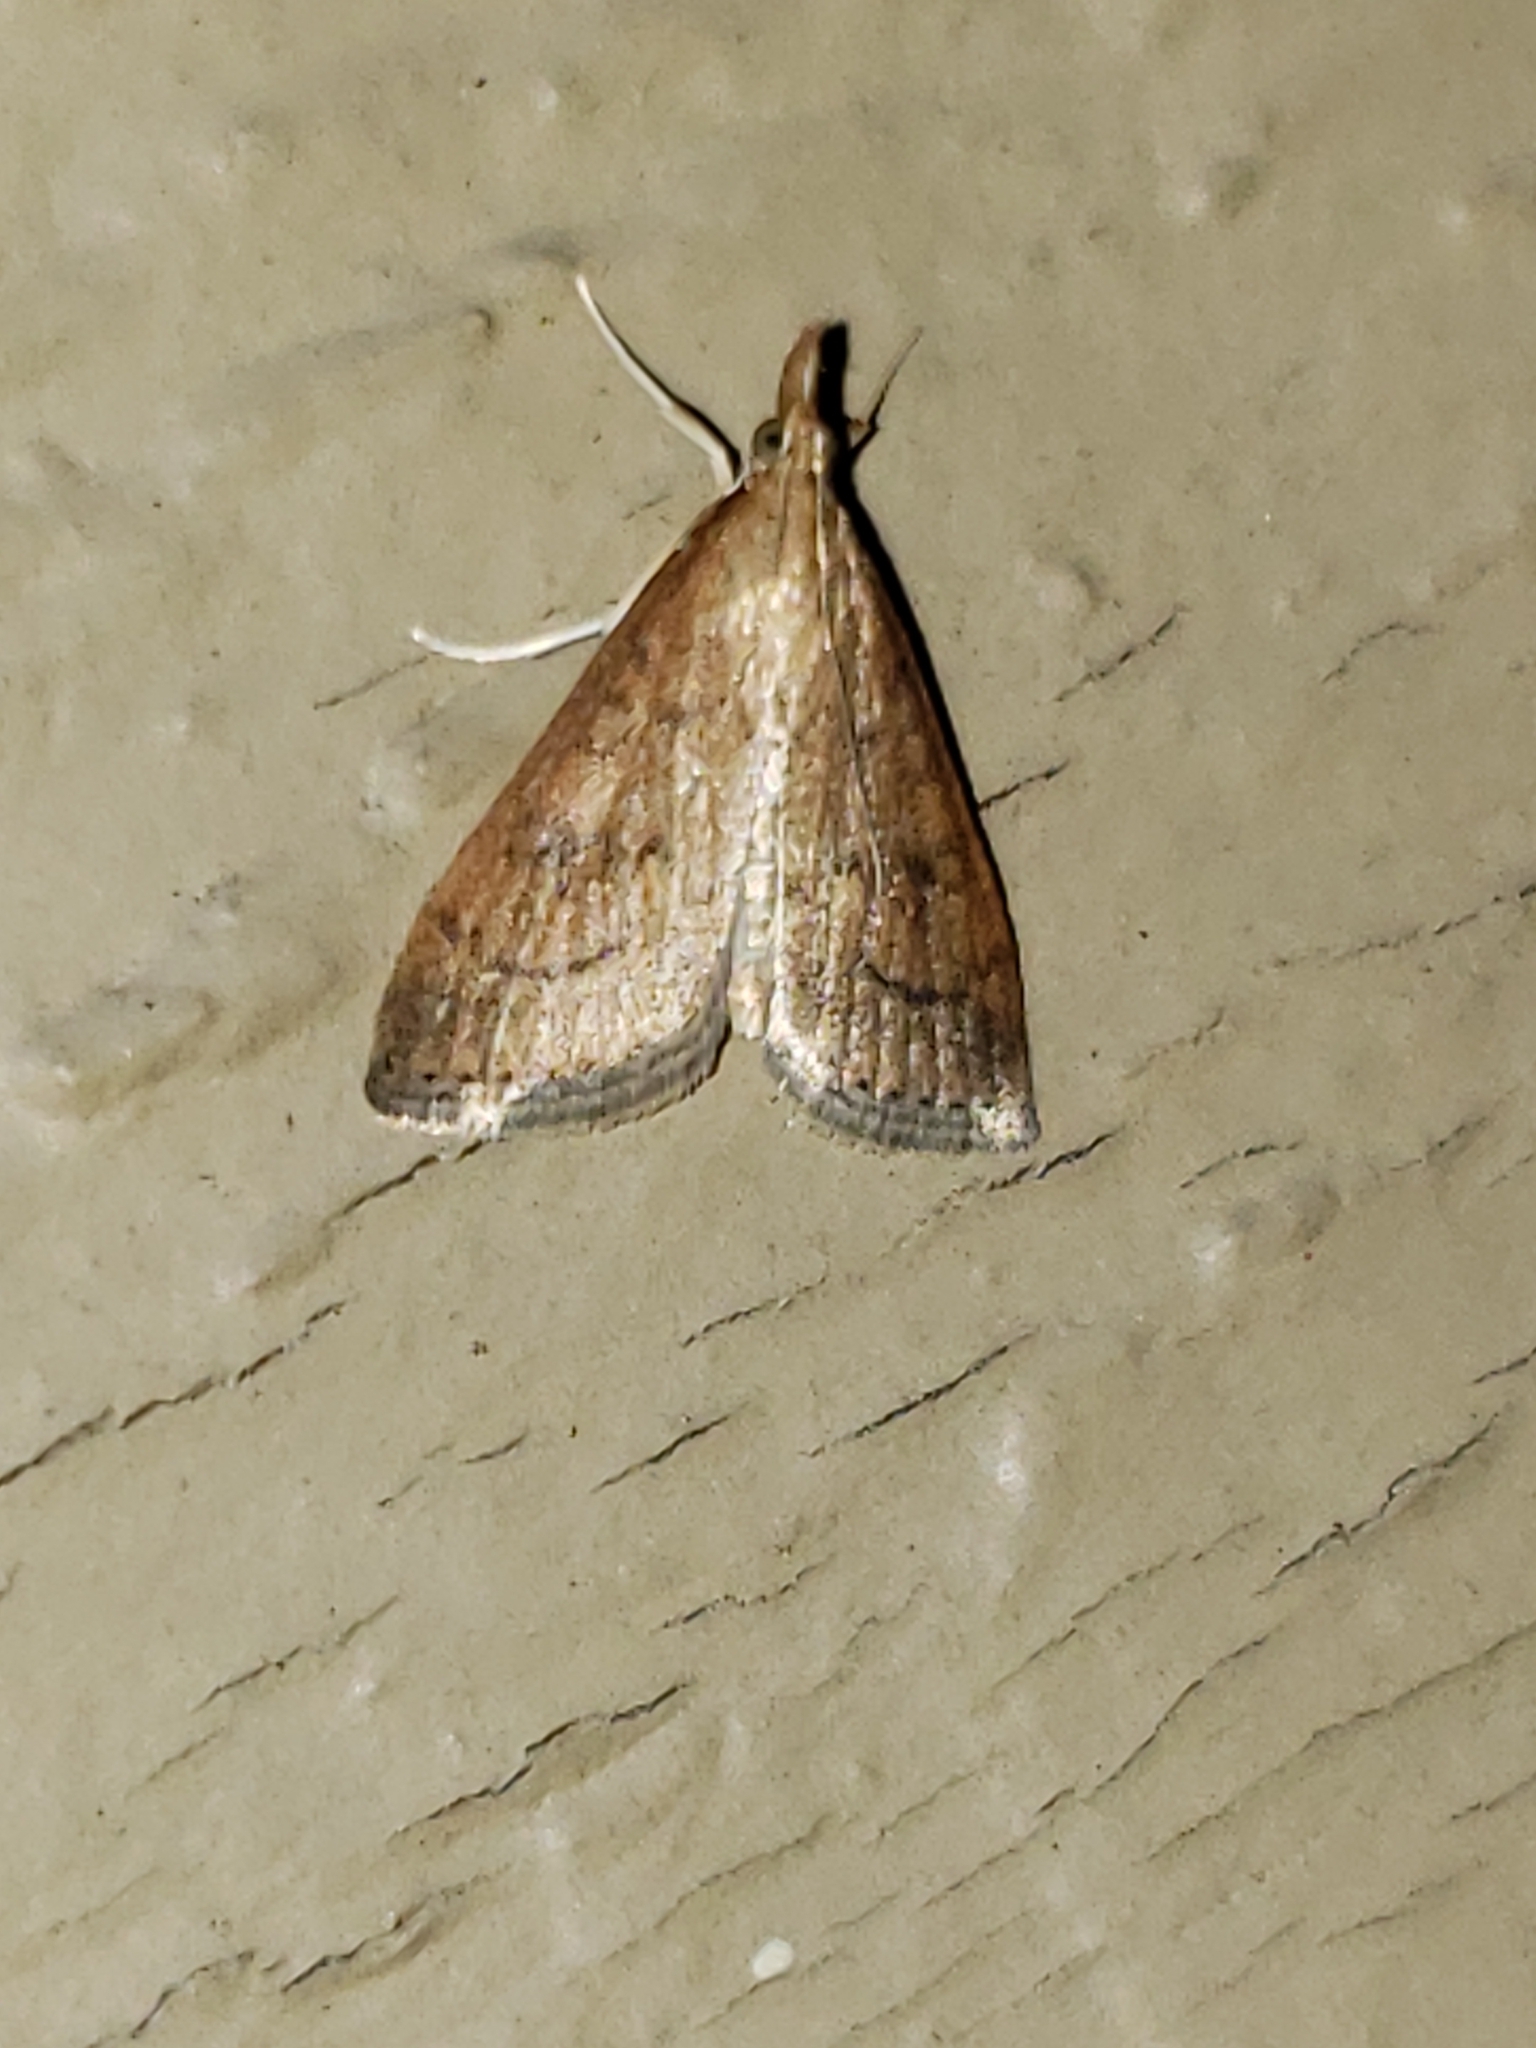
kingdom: Animalia
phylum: Arthropoda
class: Insecta
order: Lepidoptera
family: Crambidae
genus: Udea
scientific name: Udea rubigalis
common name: Celery leaftier moth
